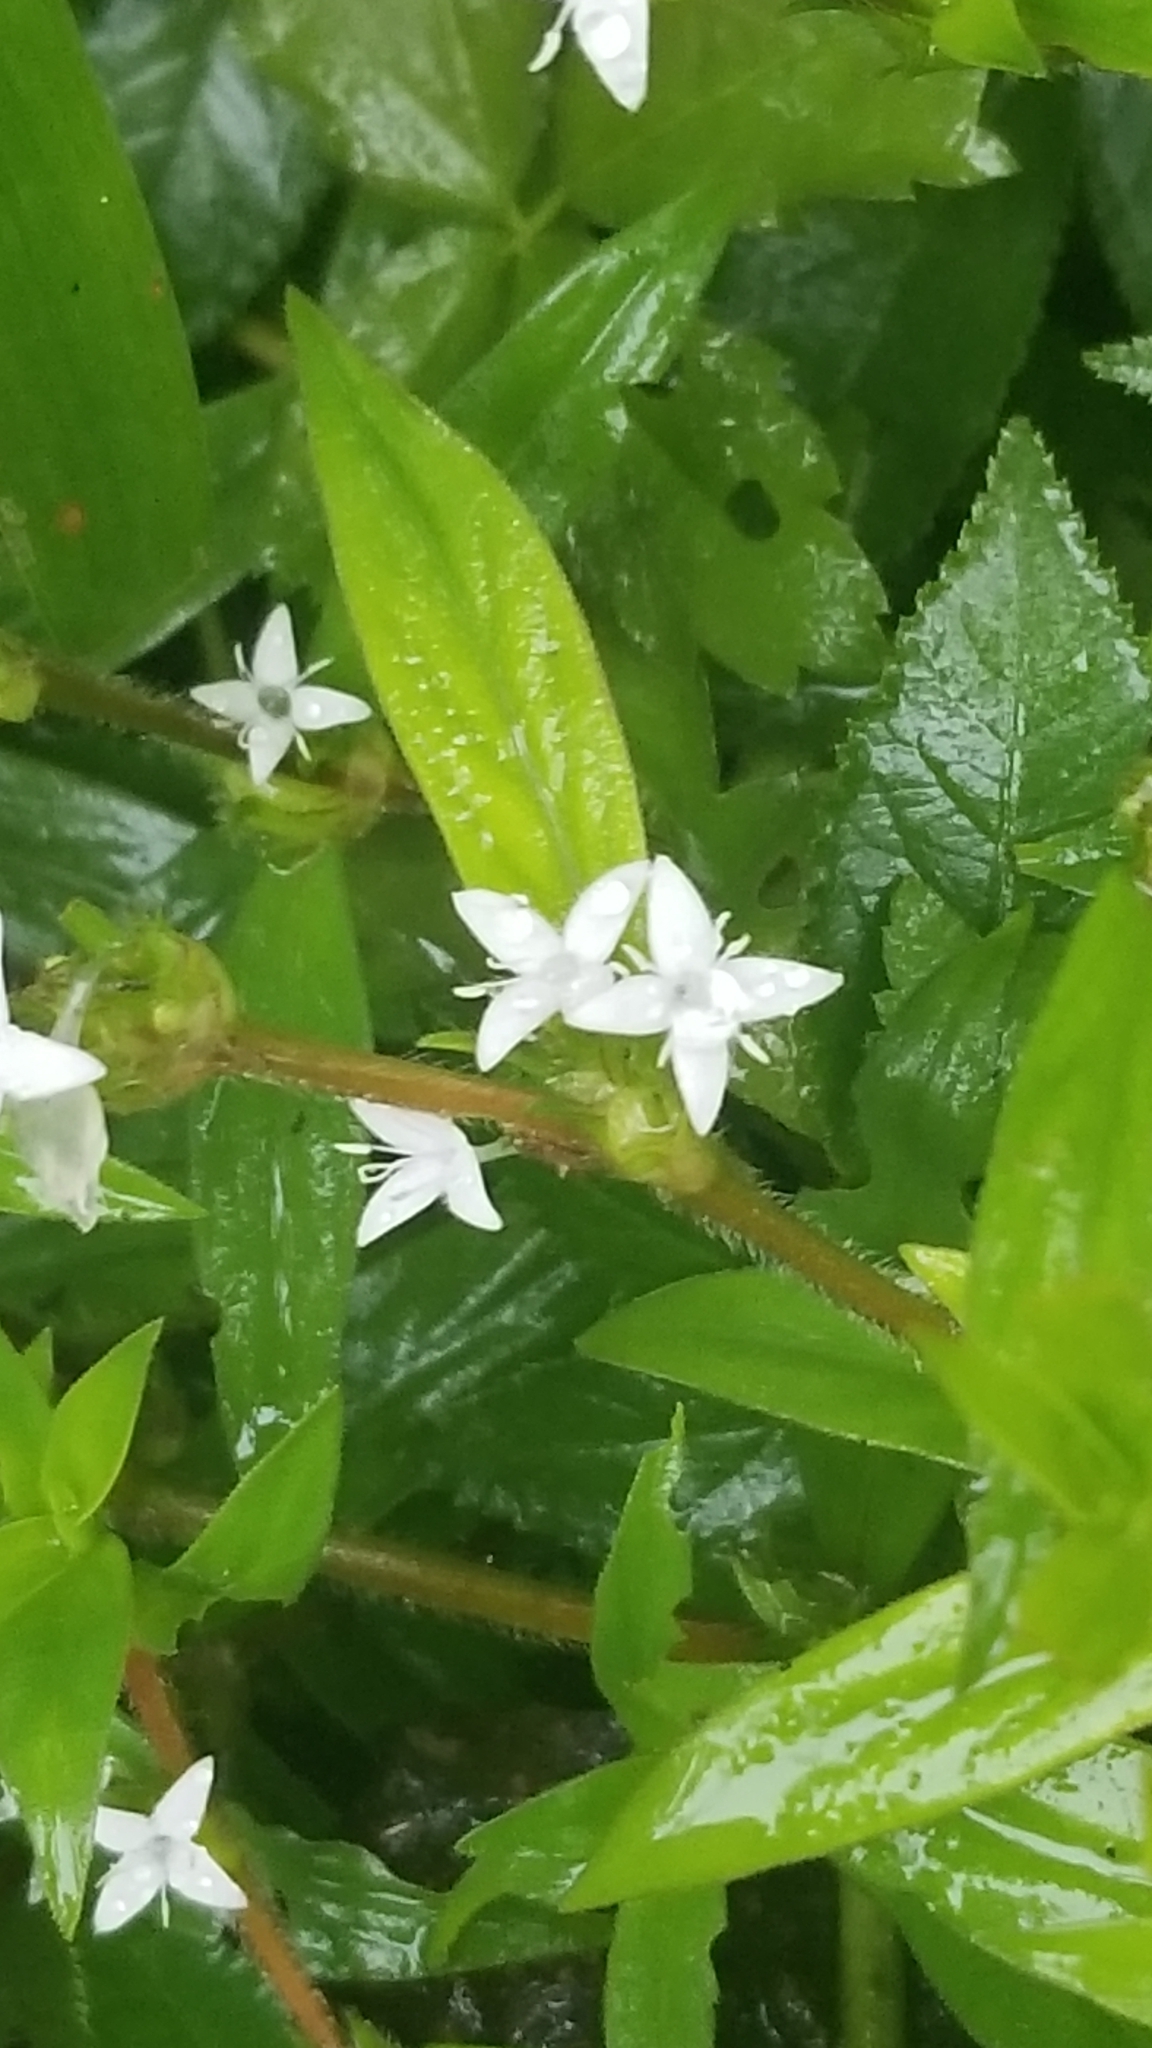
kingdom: Plantae
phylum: Tracheophyta
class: Magnoliopsida
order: Gentianales
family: Rubiaceae
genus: Diodia
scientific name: Diodia virginiana
